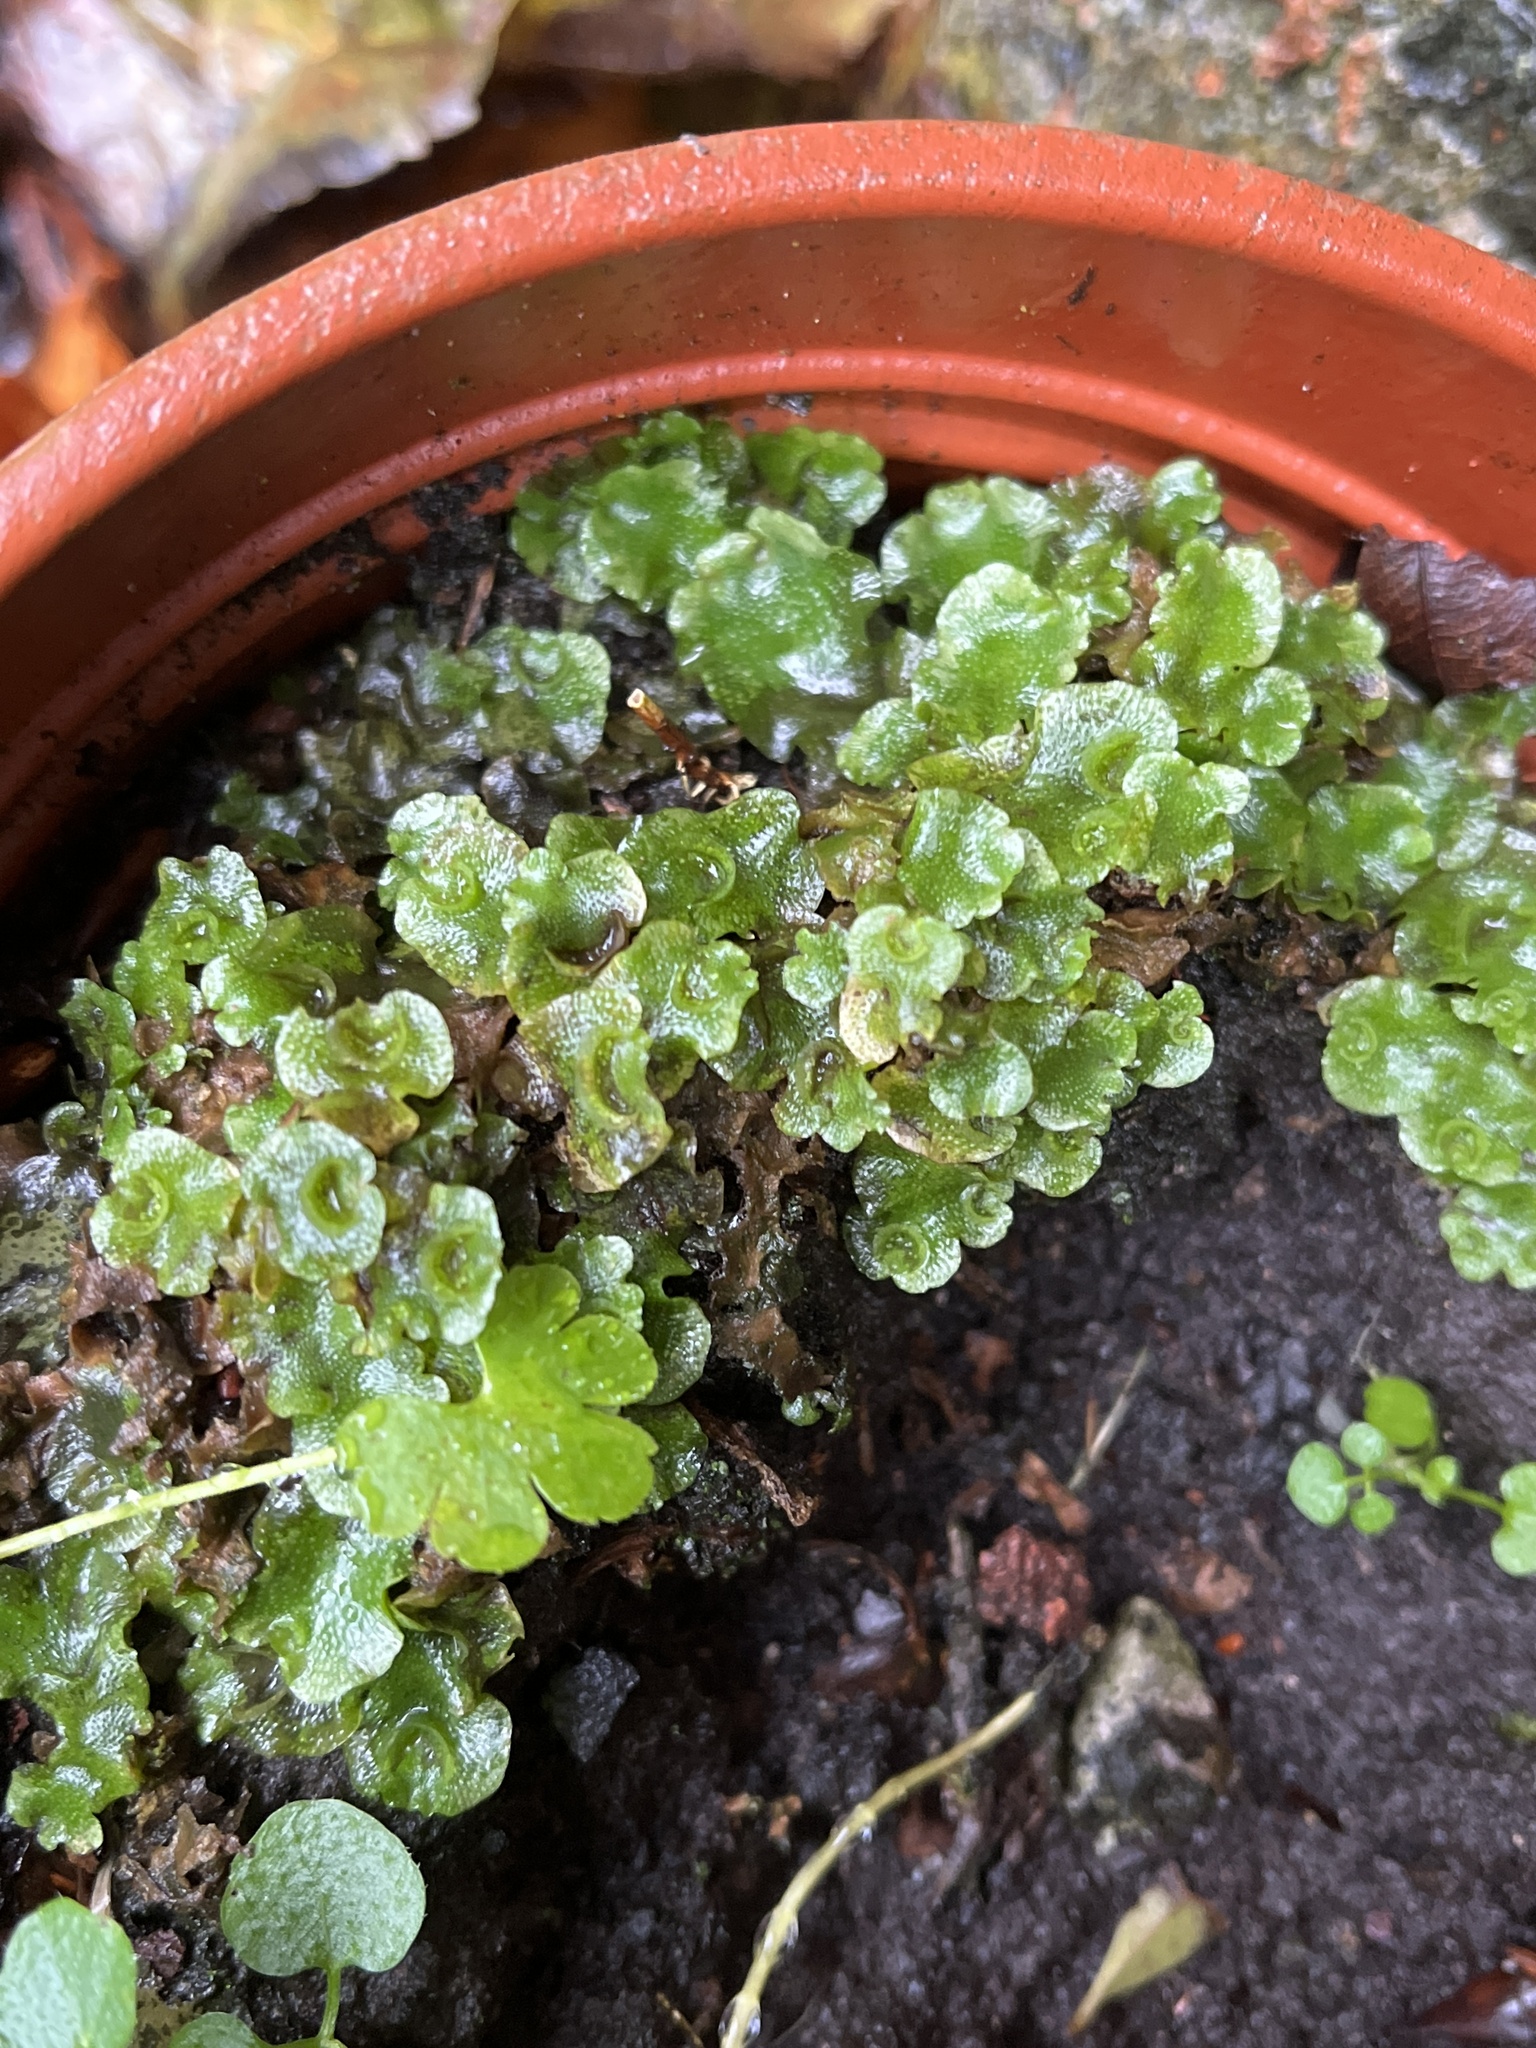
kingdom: Plantae
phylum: Marchantiophyta
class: Marchantiopsida
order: Lunulariales
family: Lunulariaceae
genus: Lunularia
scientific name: Lunularia cruciata
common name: Crescent-cup liverwort
